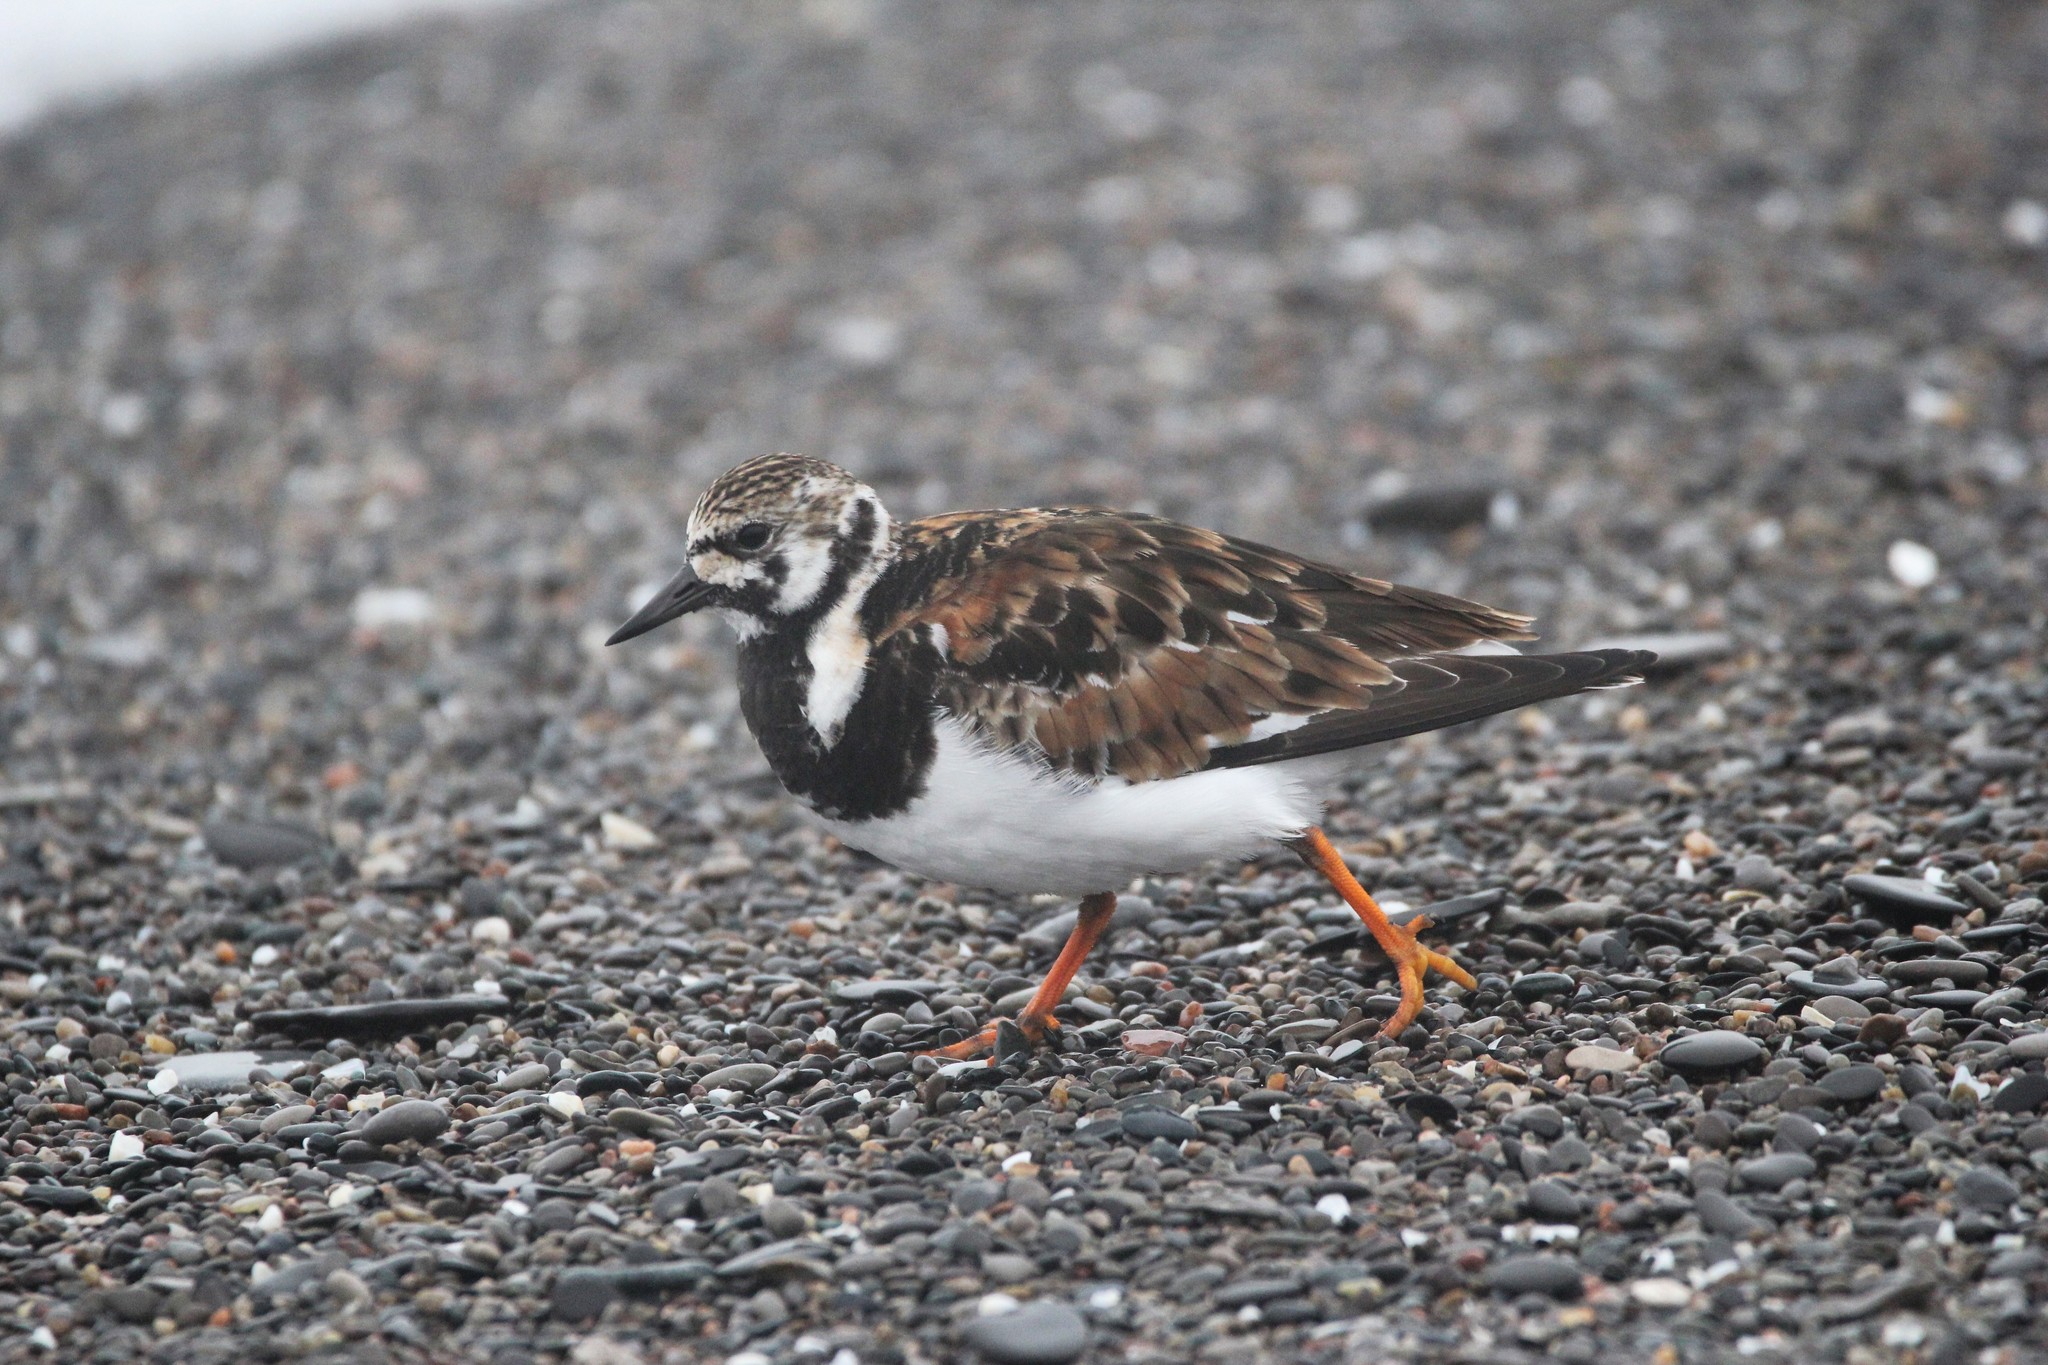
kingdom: Animalia
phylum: Chordata
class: Aves
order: Charadriiformes
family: Scolopacidae
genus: Arenaria
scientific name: Arenaria interpres
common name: Ruddy turnstone
